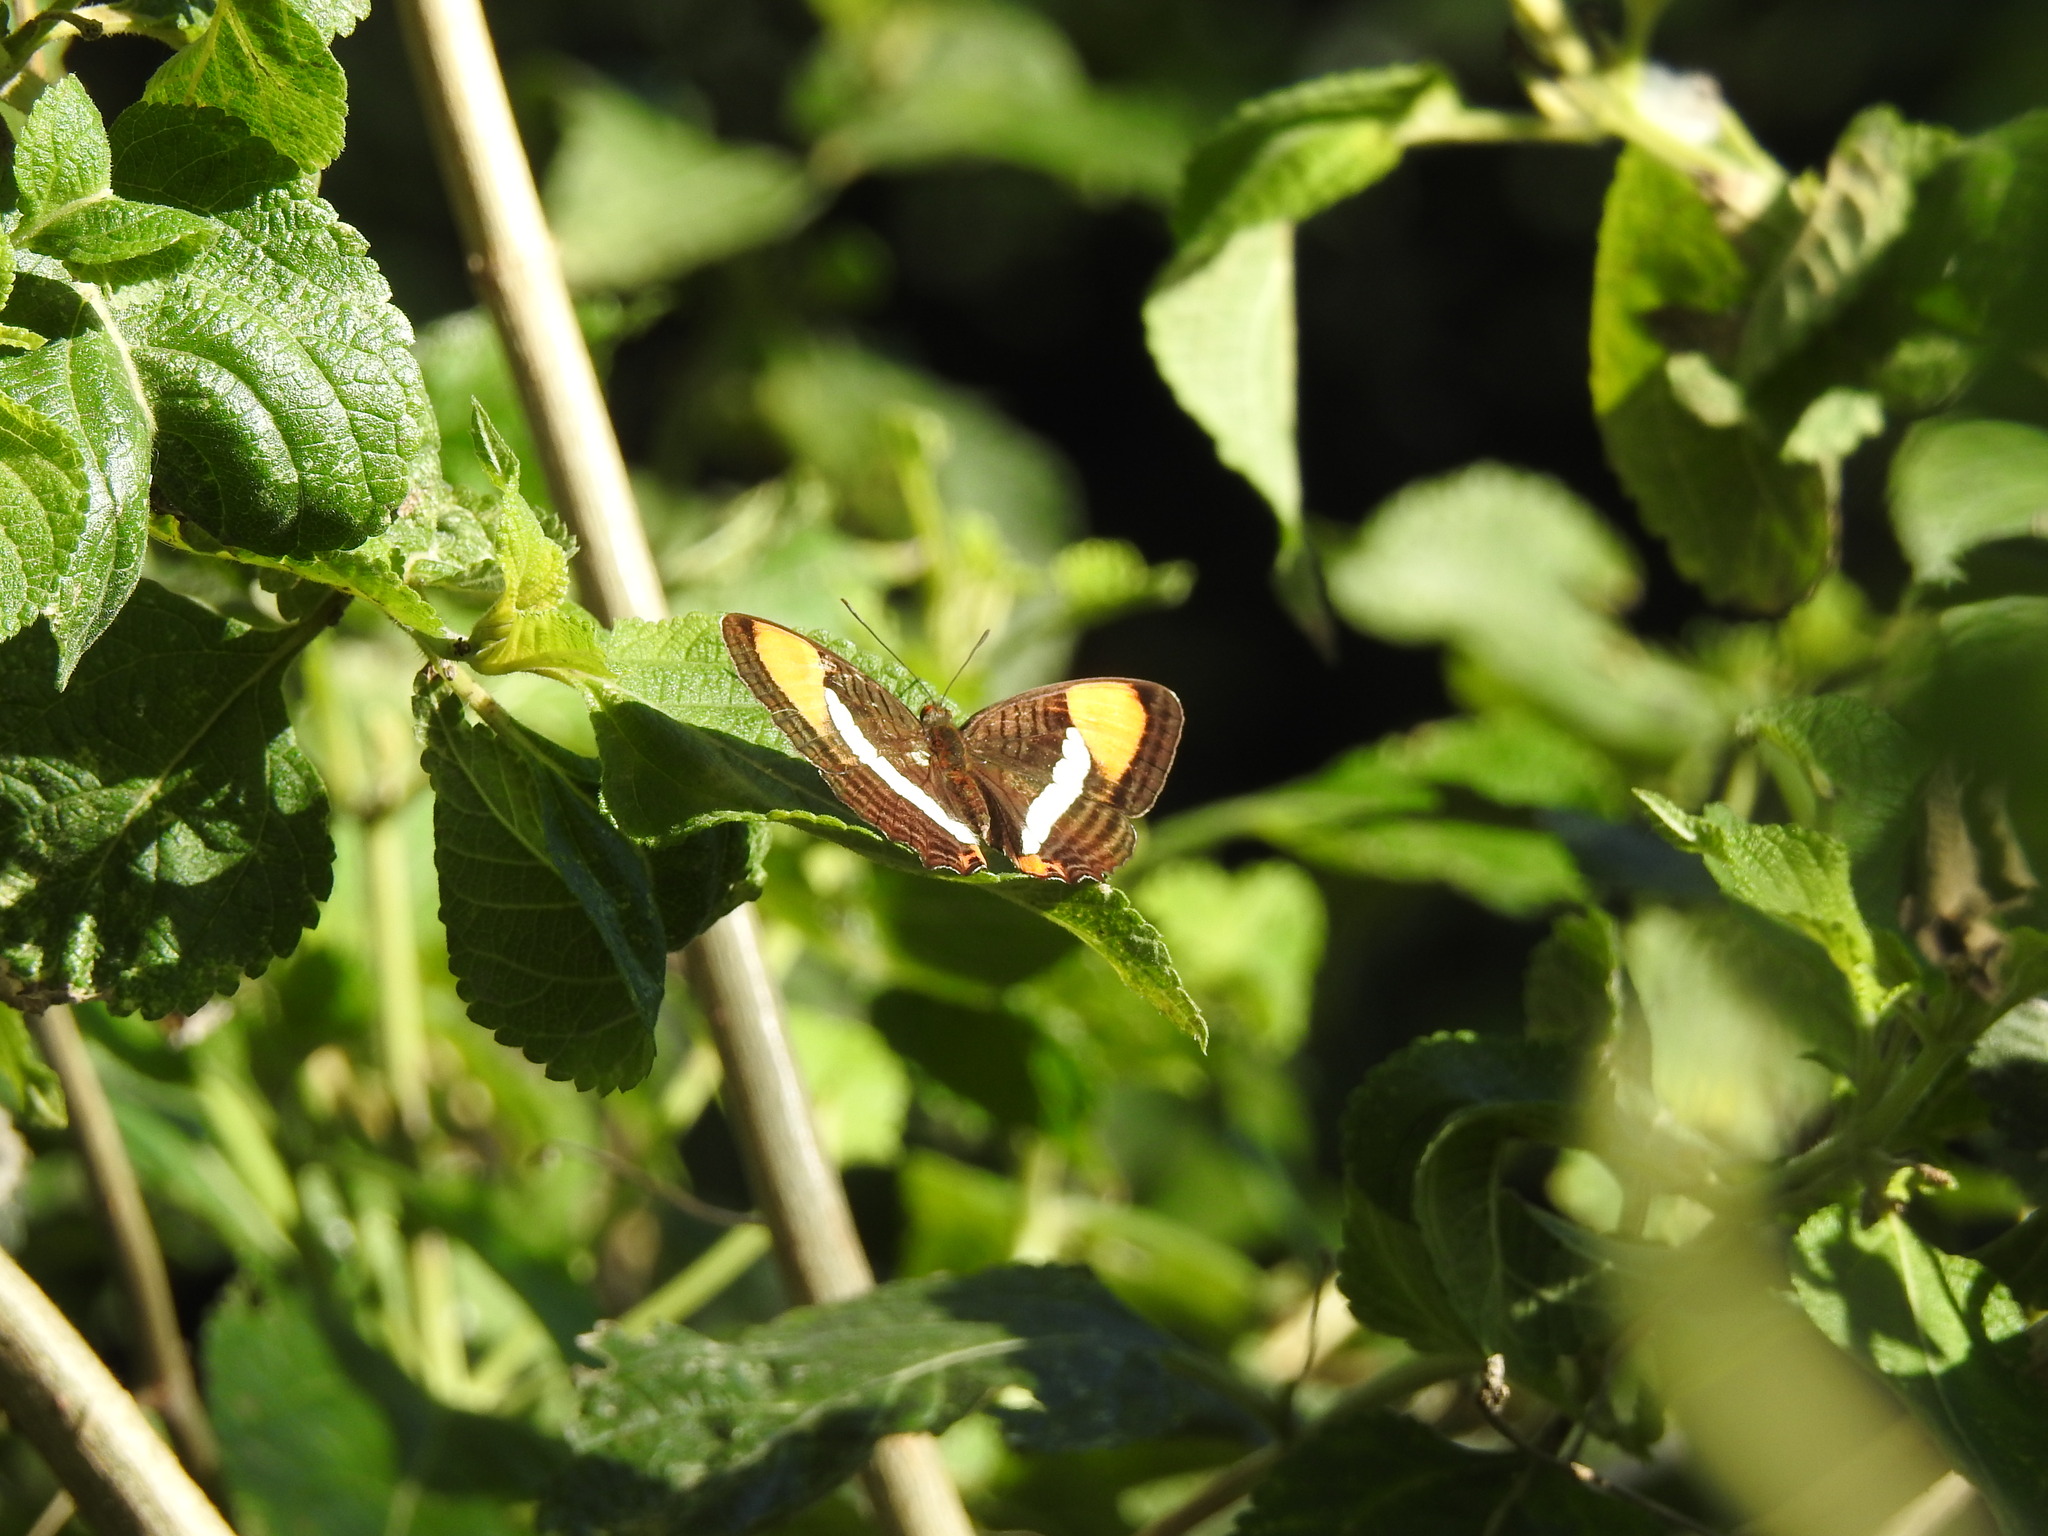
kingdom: Animalia
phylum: Arthropoda
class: Insecta
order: Lepidoptera
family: Nymphalidae
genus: Limenitis
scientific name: Limenitis syma
